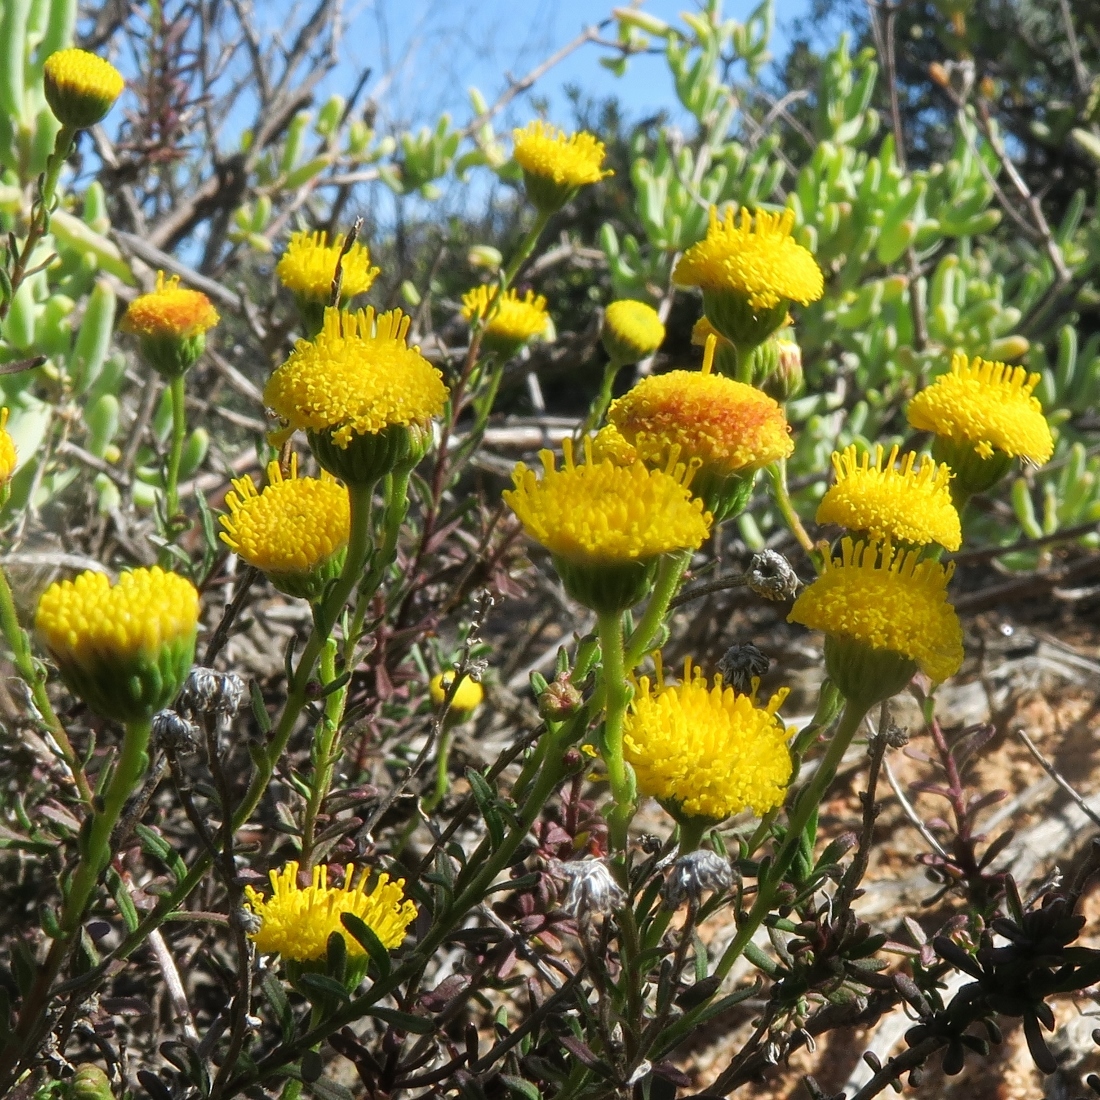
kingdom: Plantae
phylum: Tracheophyta
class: Magnoliopsida
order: Asterales
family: Asteraceae
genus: Chrysocoma
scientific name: Chrysocoma ciliata
